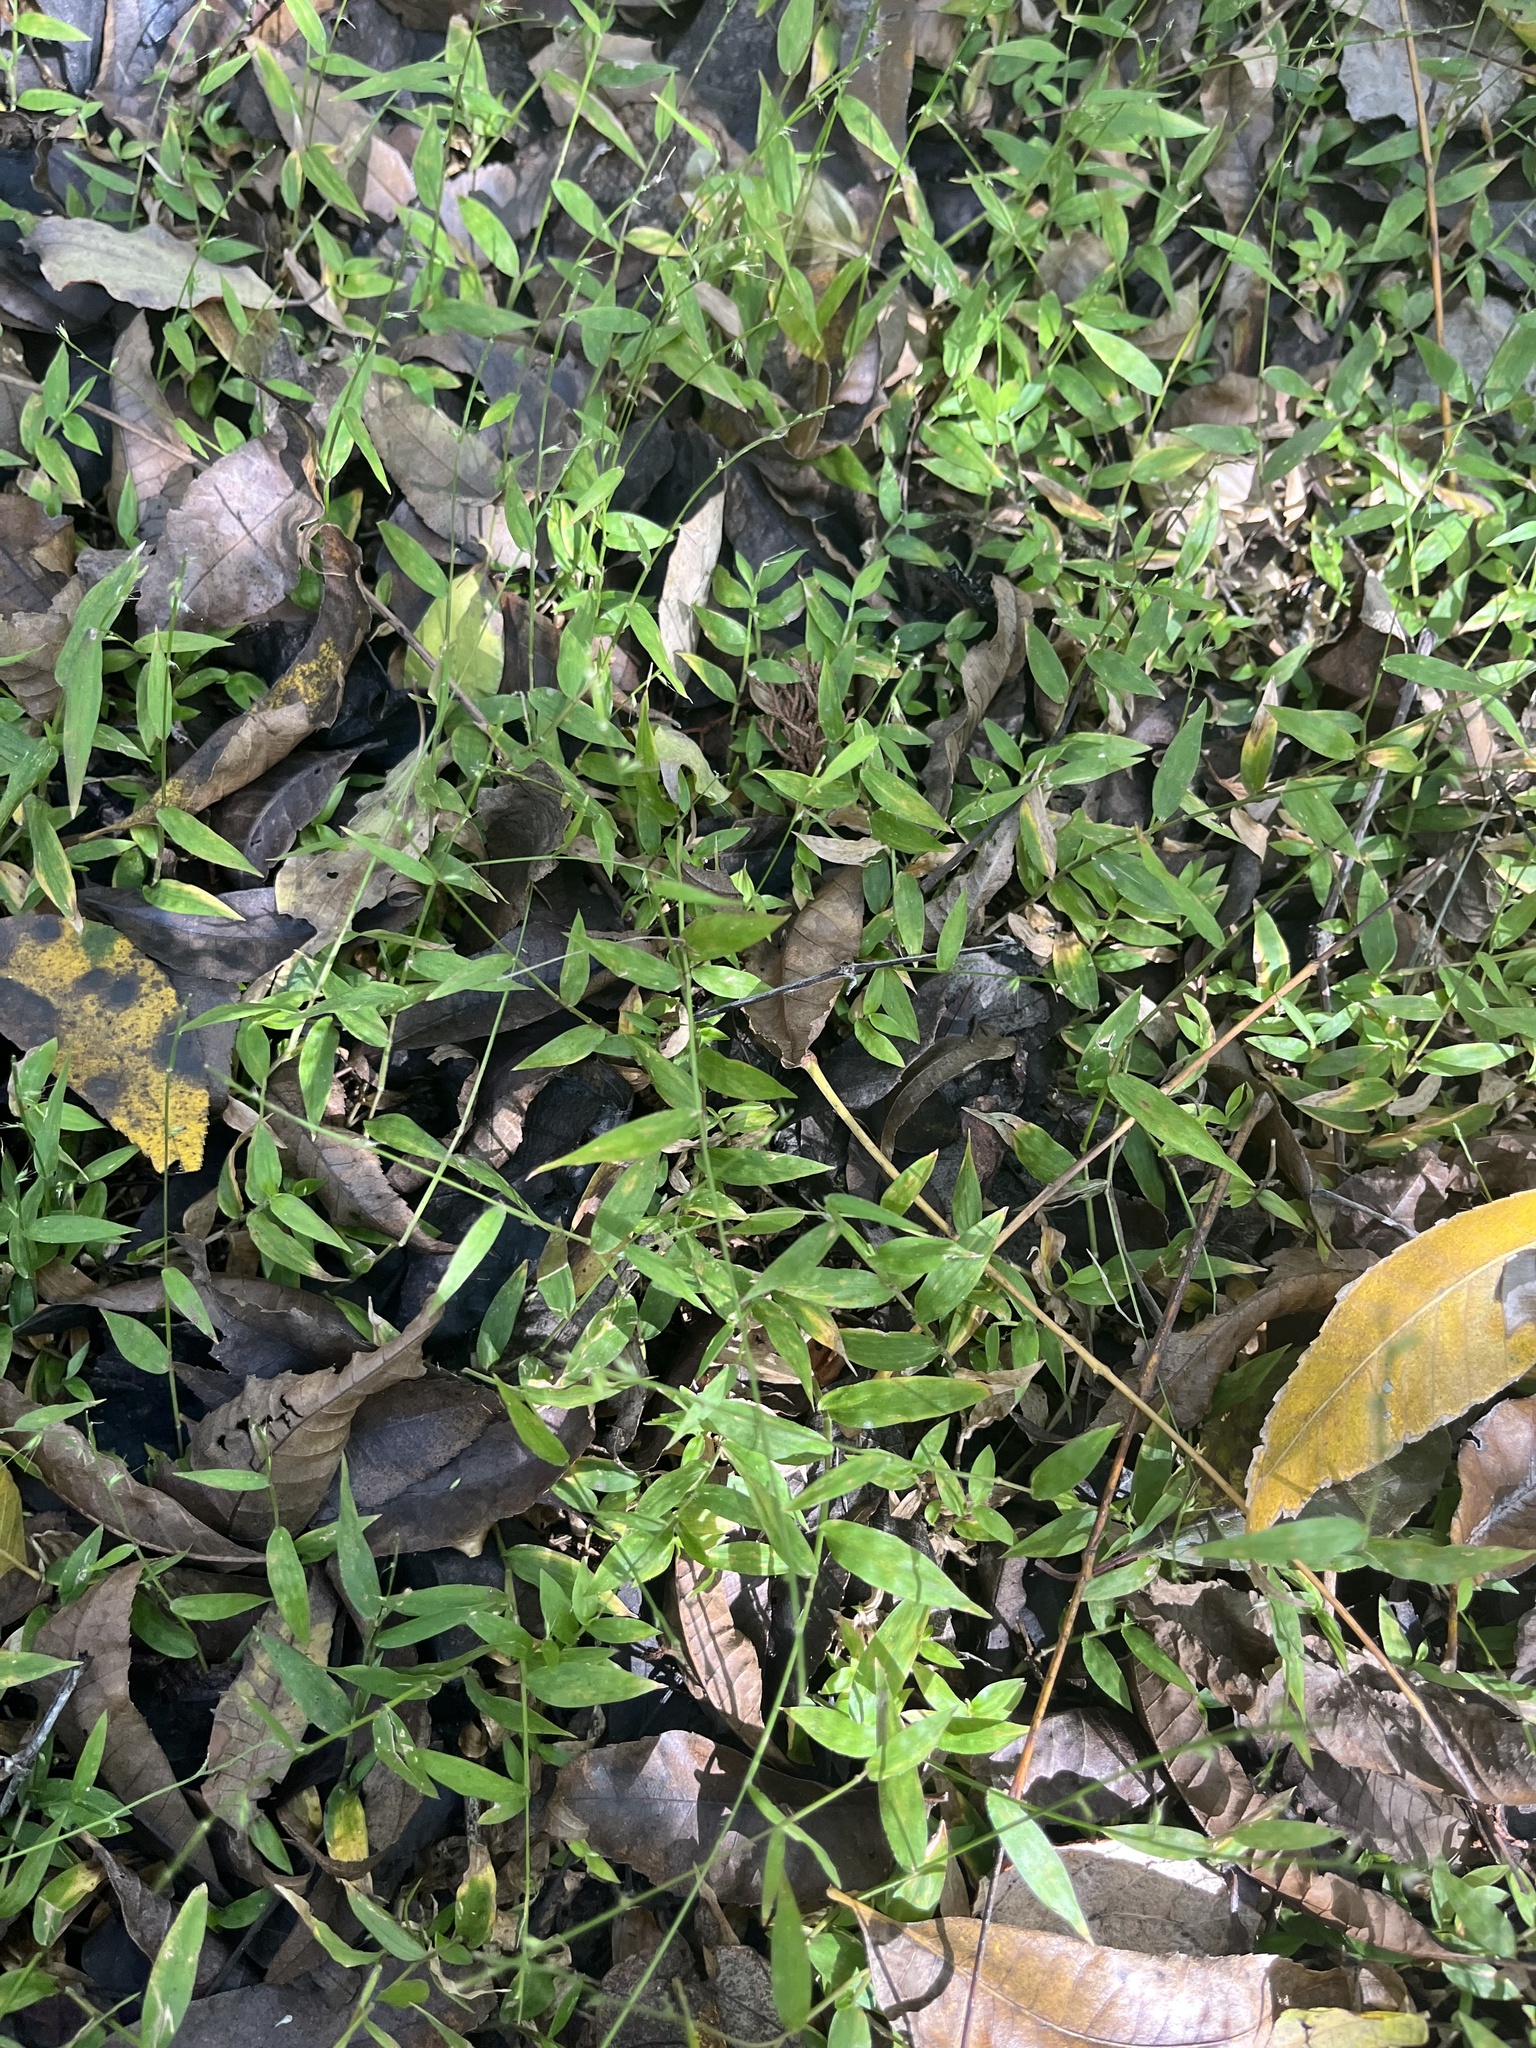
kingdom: Plantae
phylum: Tracheophyta
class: Liliopsida
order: Poales
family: Poaceae
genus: Oplismenus
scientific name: Oplismenus hirtellus
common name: Basketgrass
